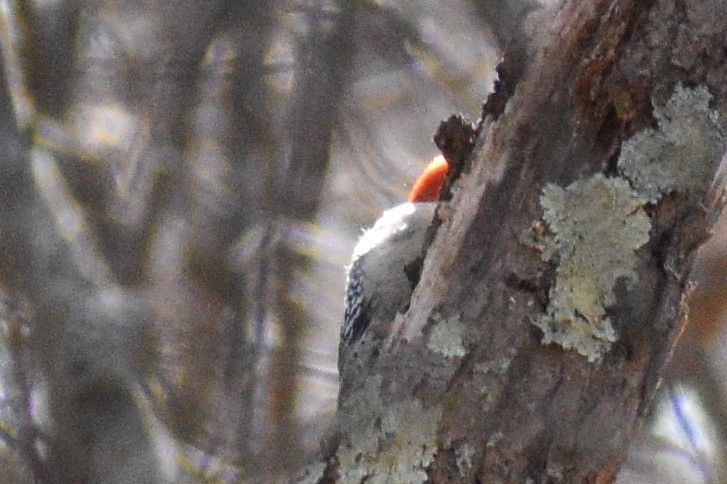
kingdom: Animalia
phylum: Chordata
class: Aves
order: Piciformes
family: Picidae
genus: Melanerpes
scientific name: Melanerpes carolinus
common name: Red-bellied woodpecker
